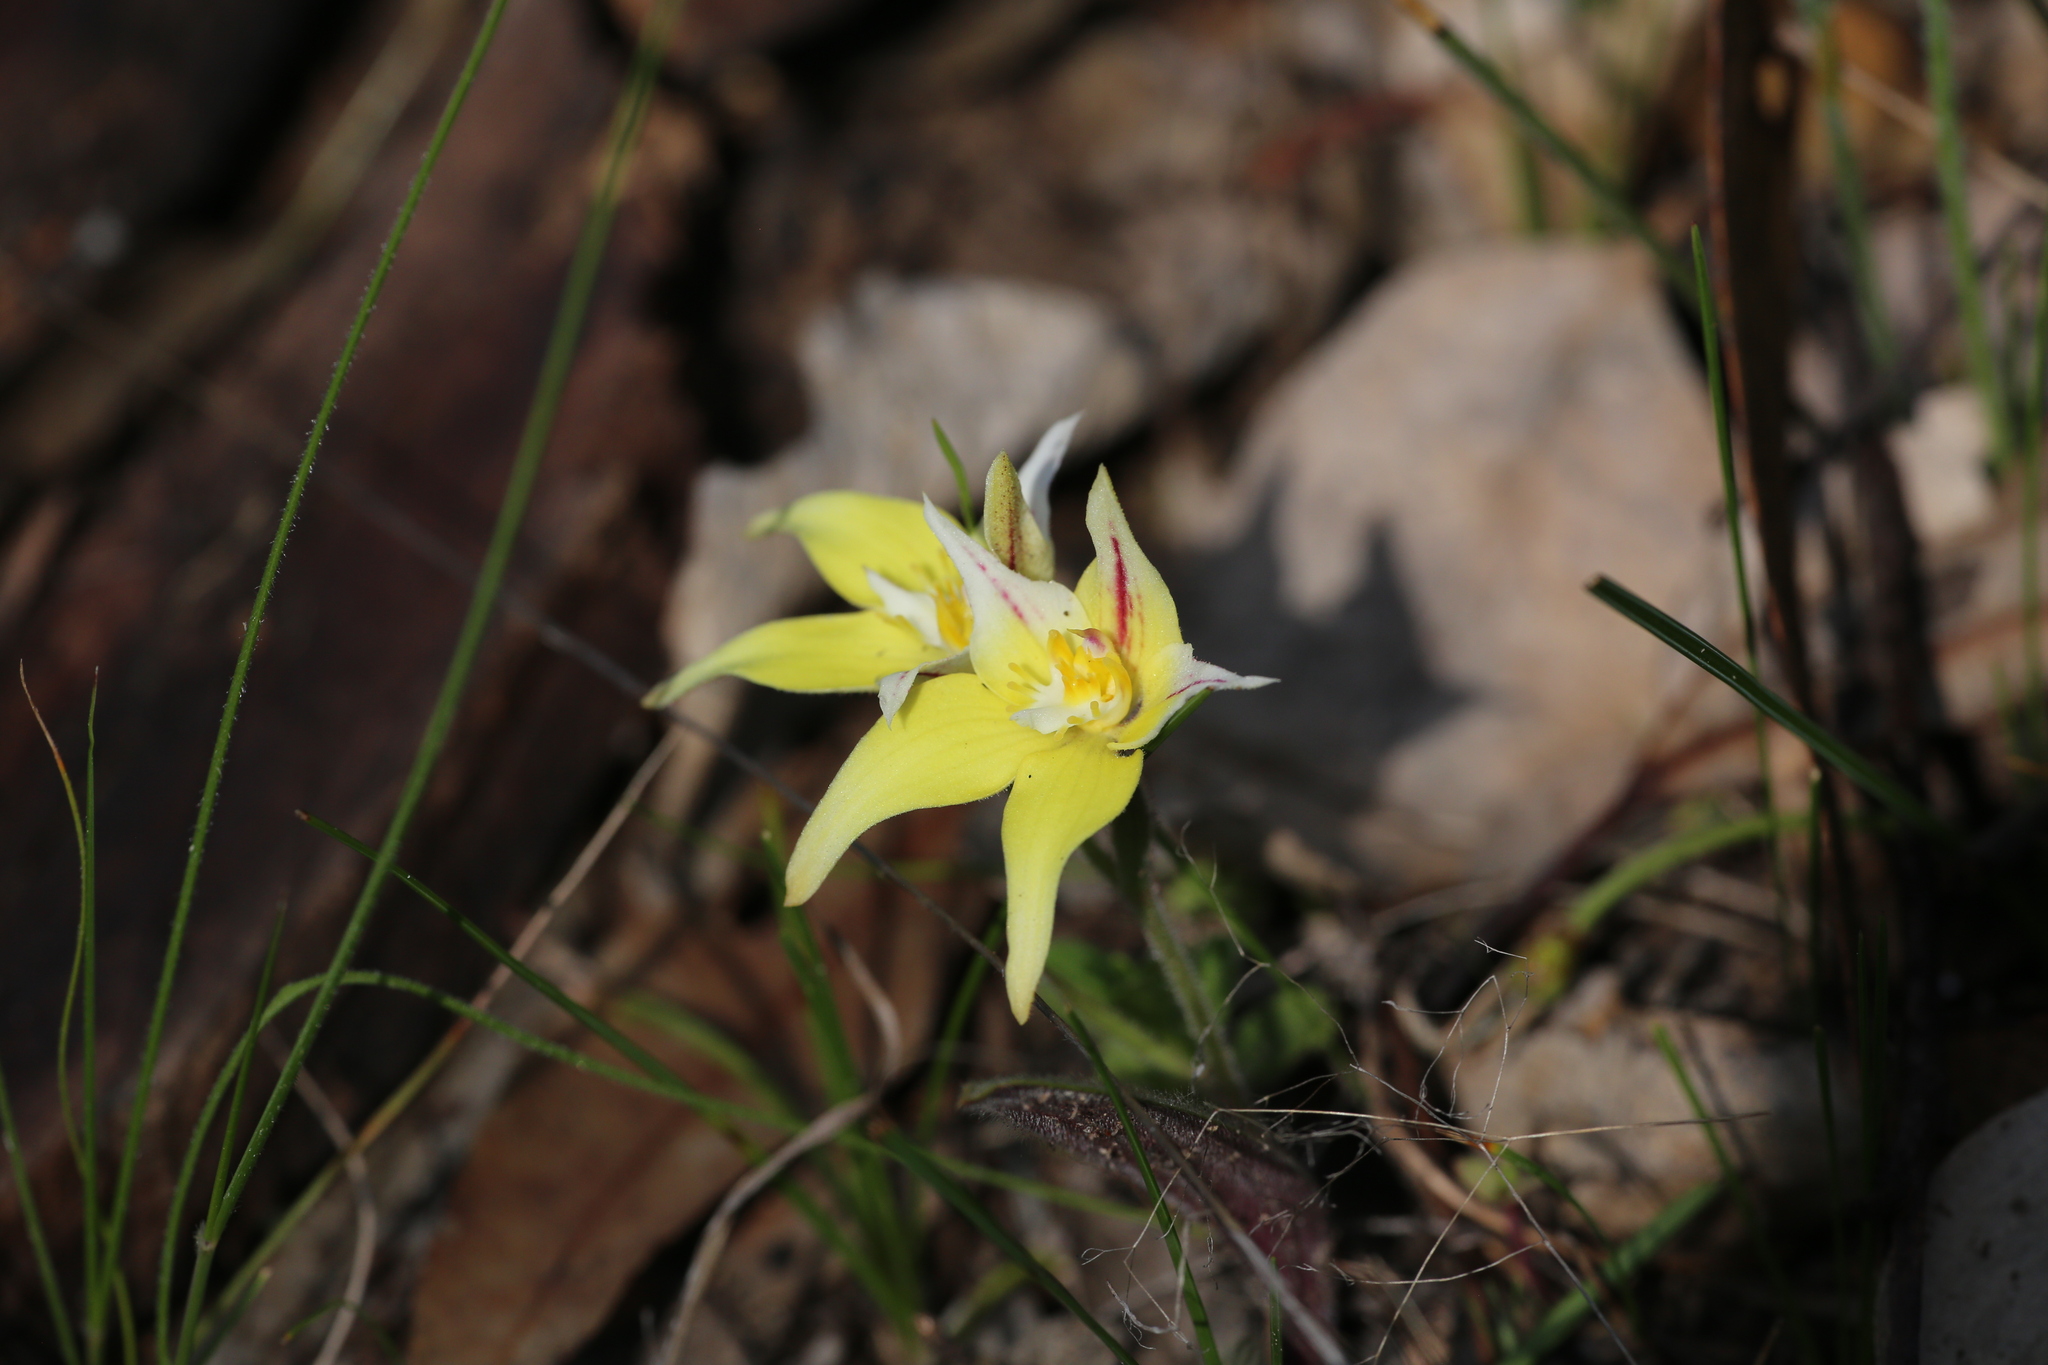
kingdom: Plantae
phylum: Tracheophyta
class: Liliopsida
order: Asparagales
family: Orchidaceae
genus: Caladenia
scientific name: Caladenia flava
